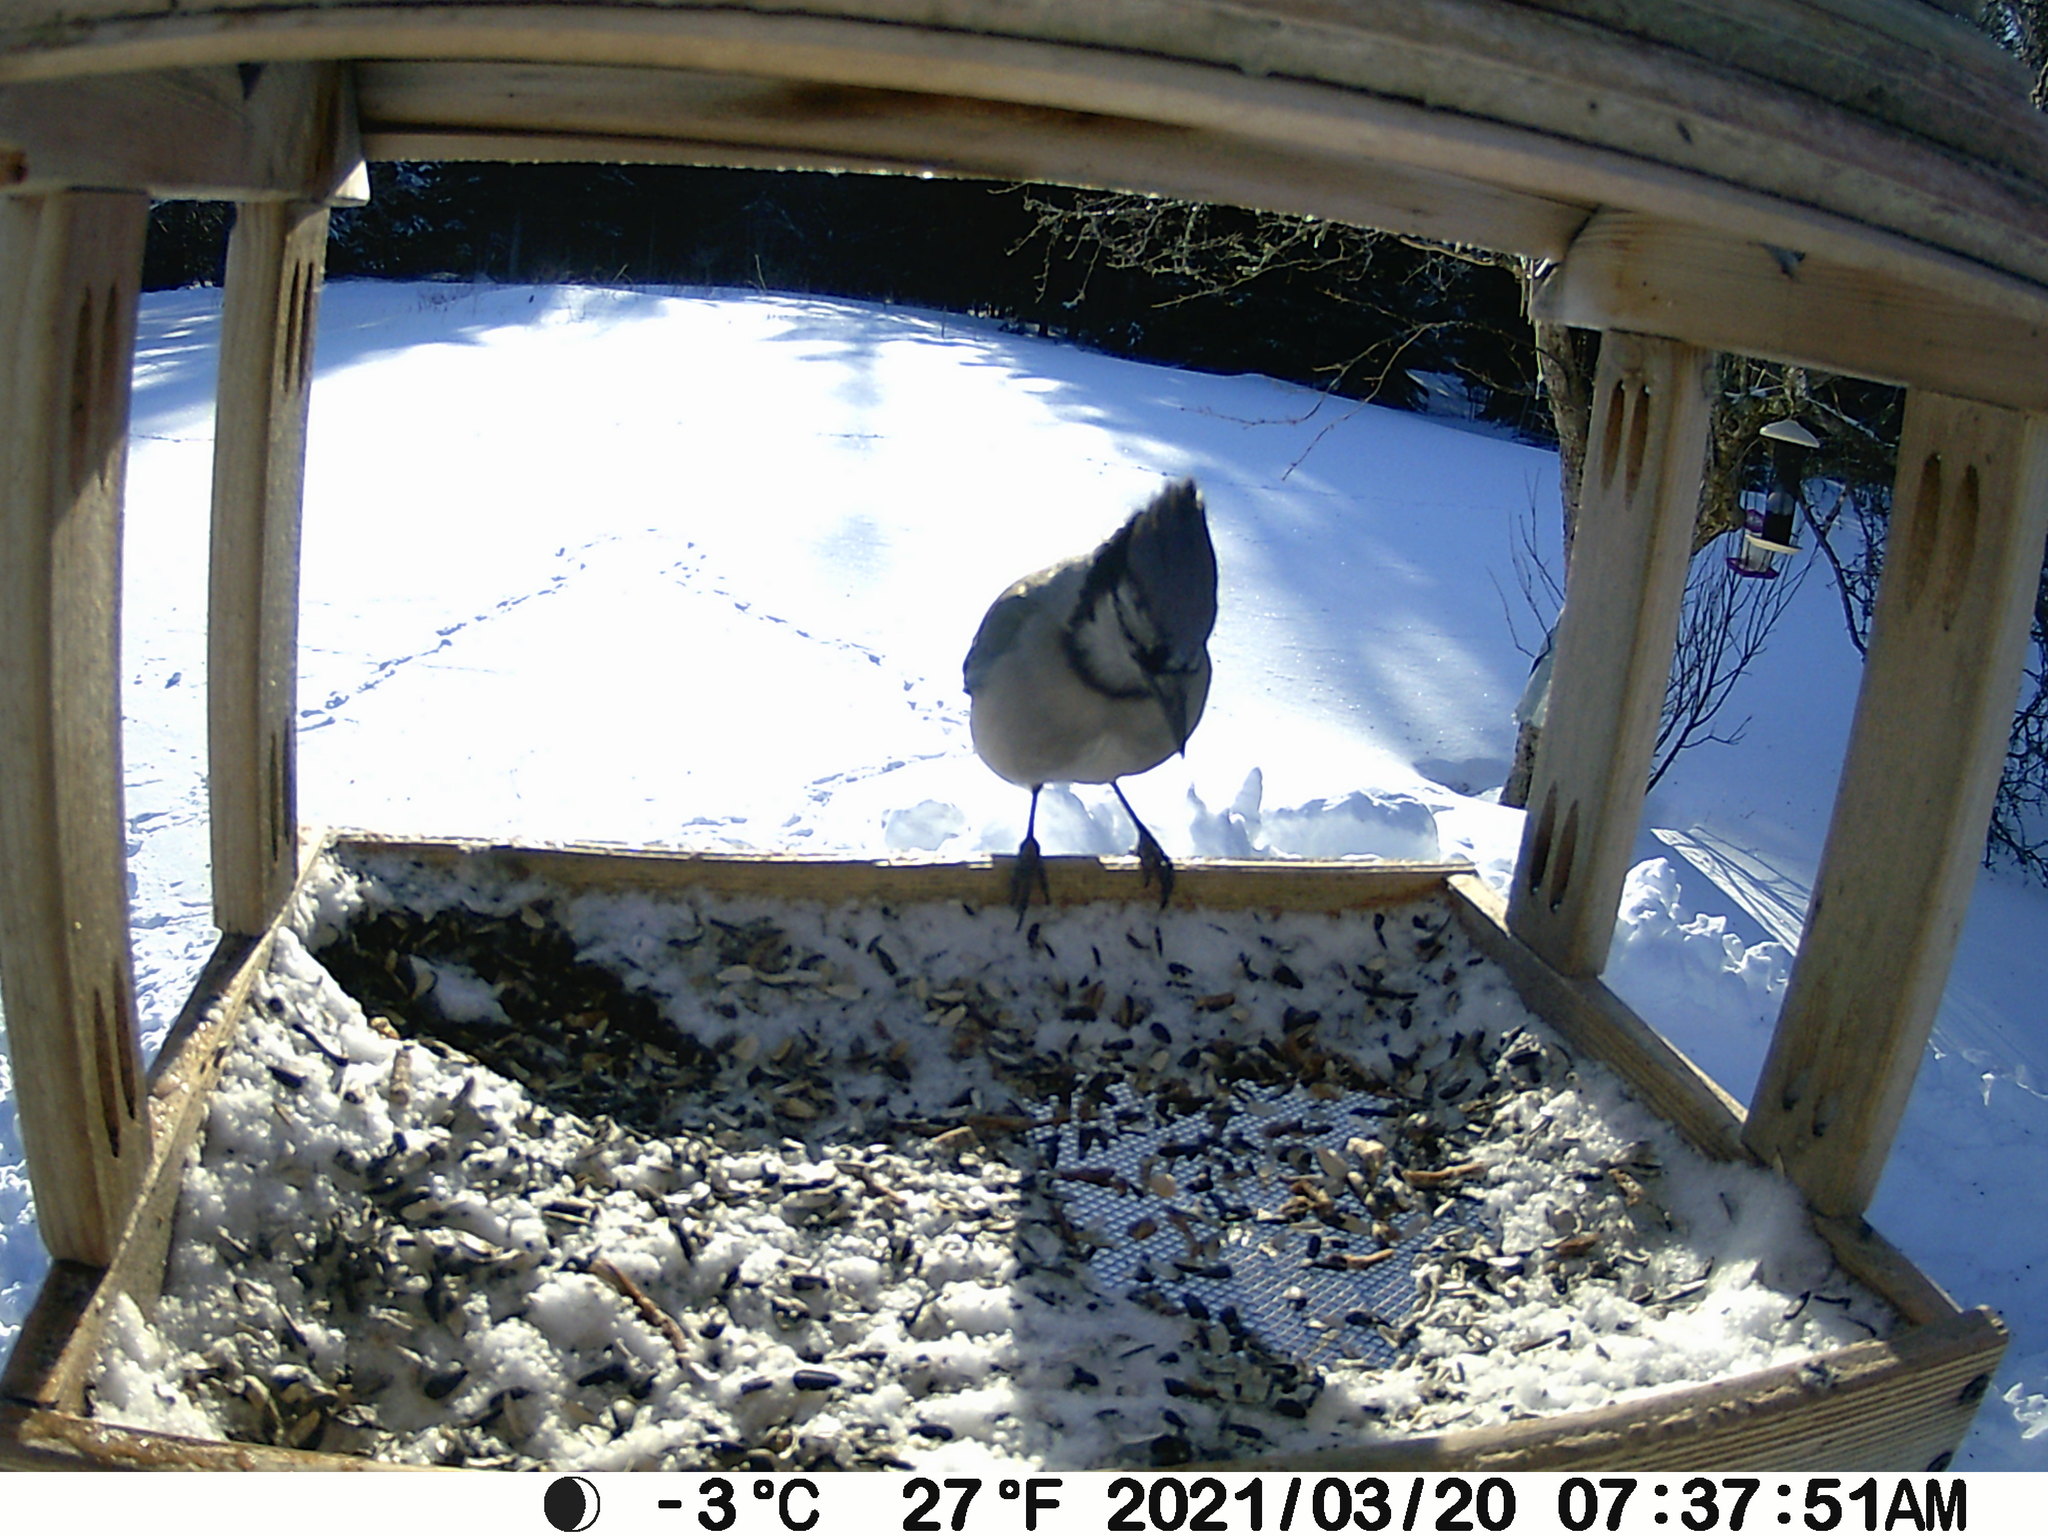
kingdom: Animalia
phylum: Chordata
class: Aves
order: Passeriformes
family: Corvidae
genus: Cyanocitta
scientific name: Cyanocitta cristata
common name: Blue jay
